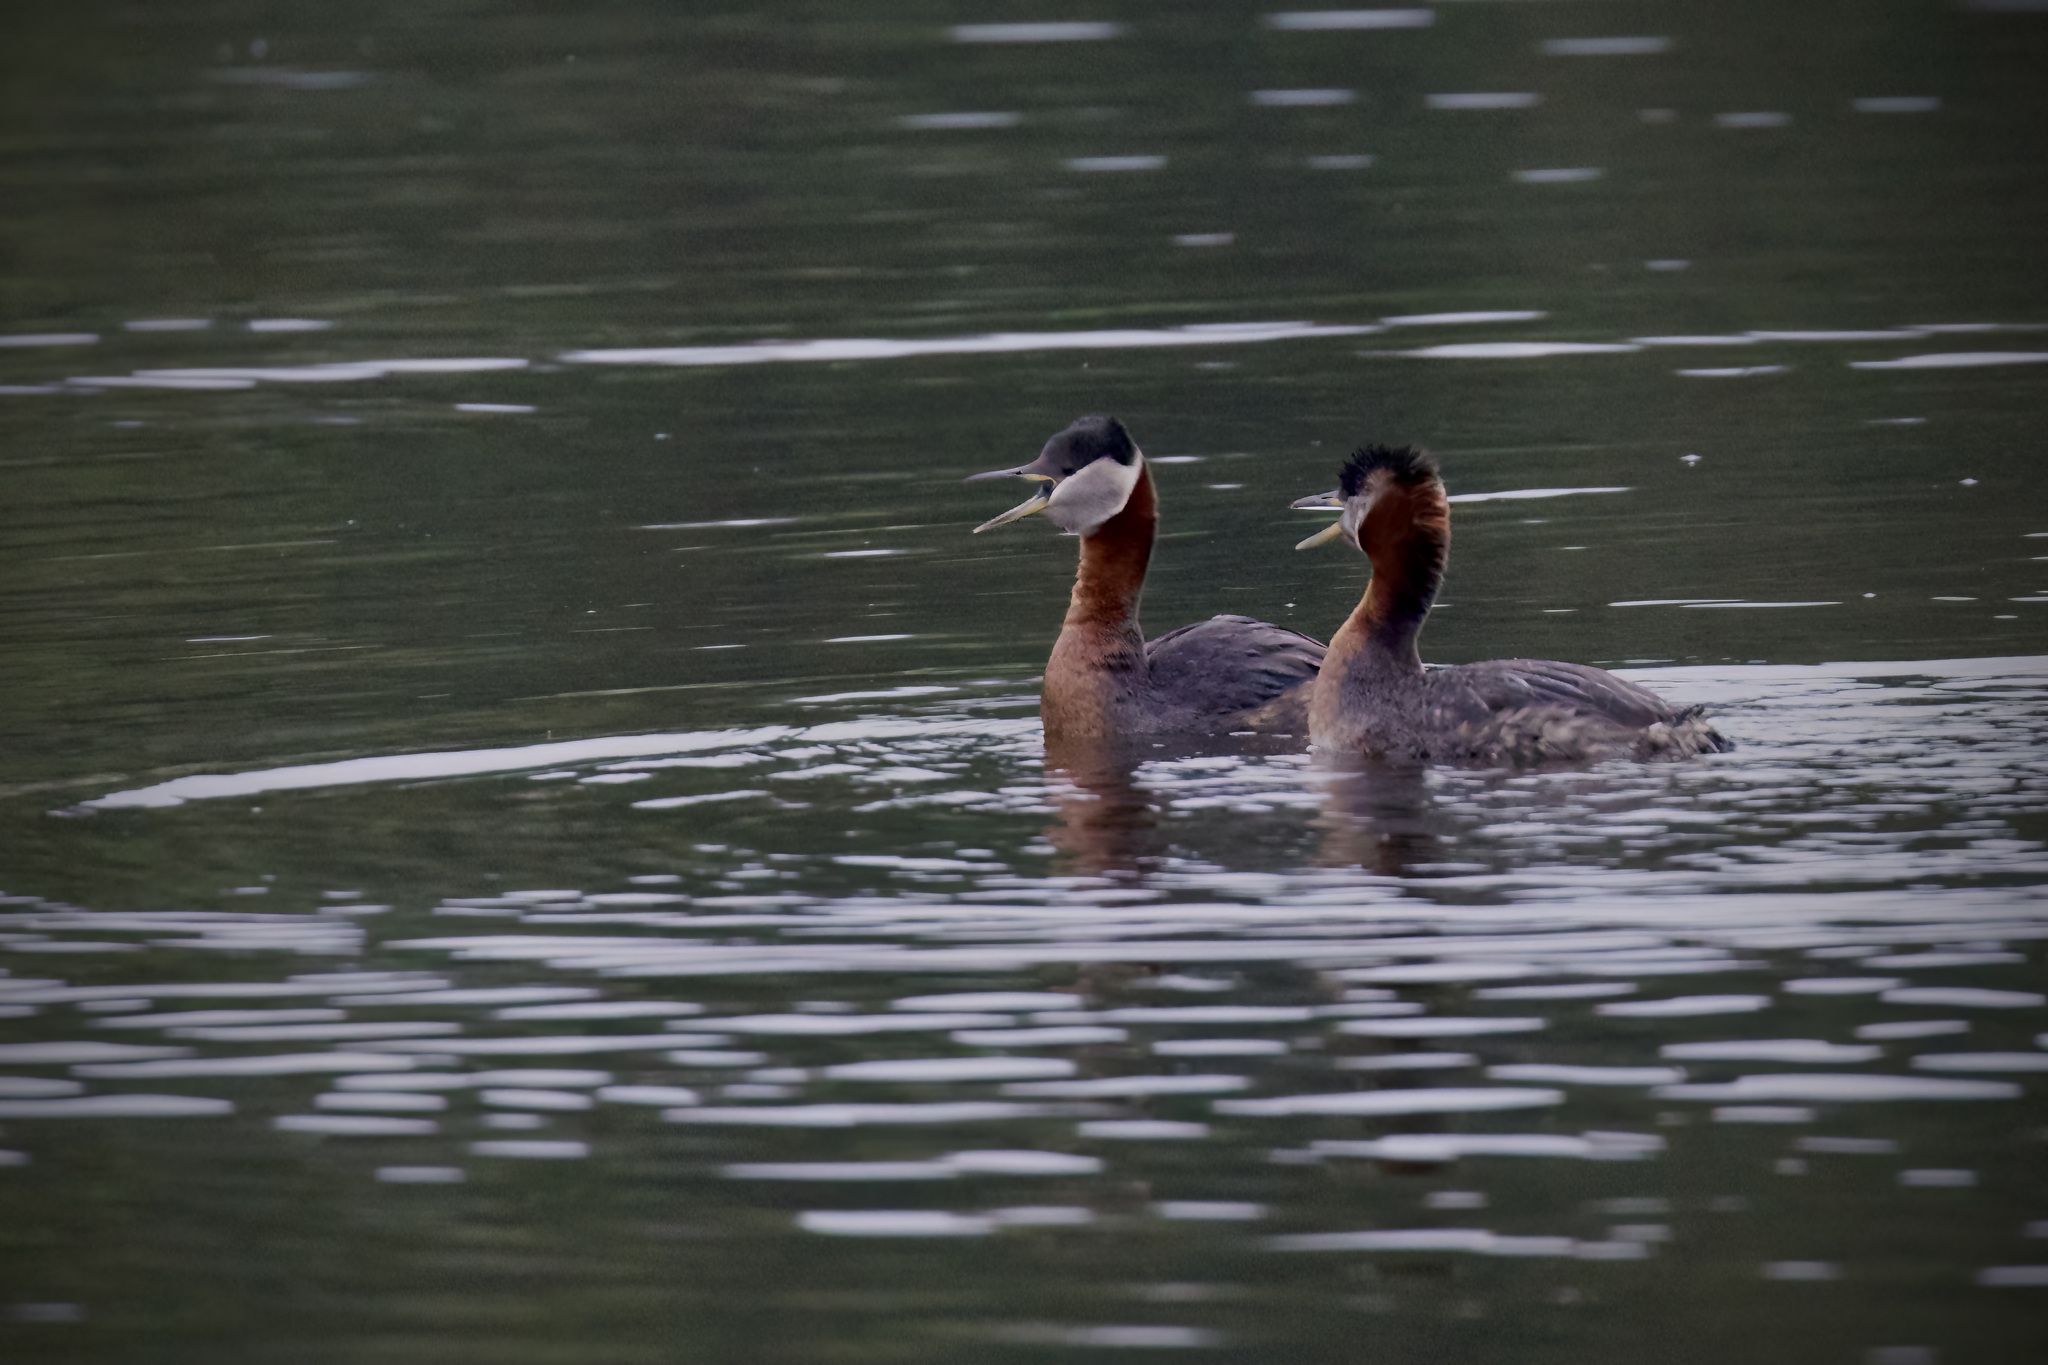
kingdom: Animalia
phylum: Chordata
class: Aves
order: Podicipediformes
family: Podicipedidae
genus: Podiceps
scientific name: Podiceps grisegena
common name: Red-necked grebe
